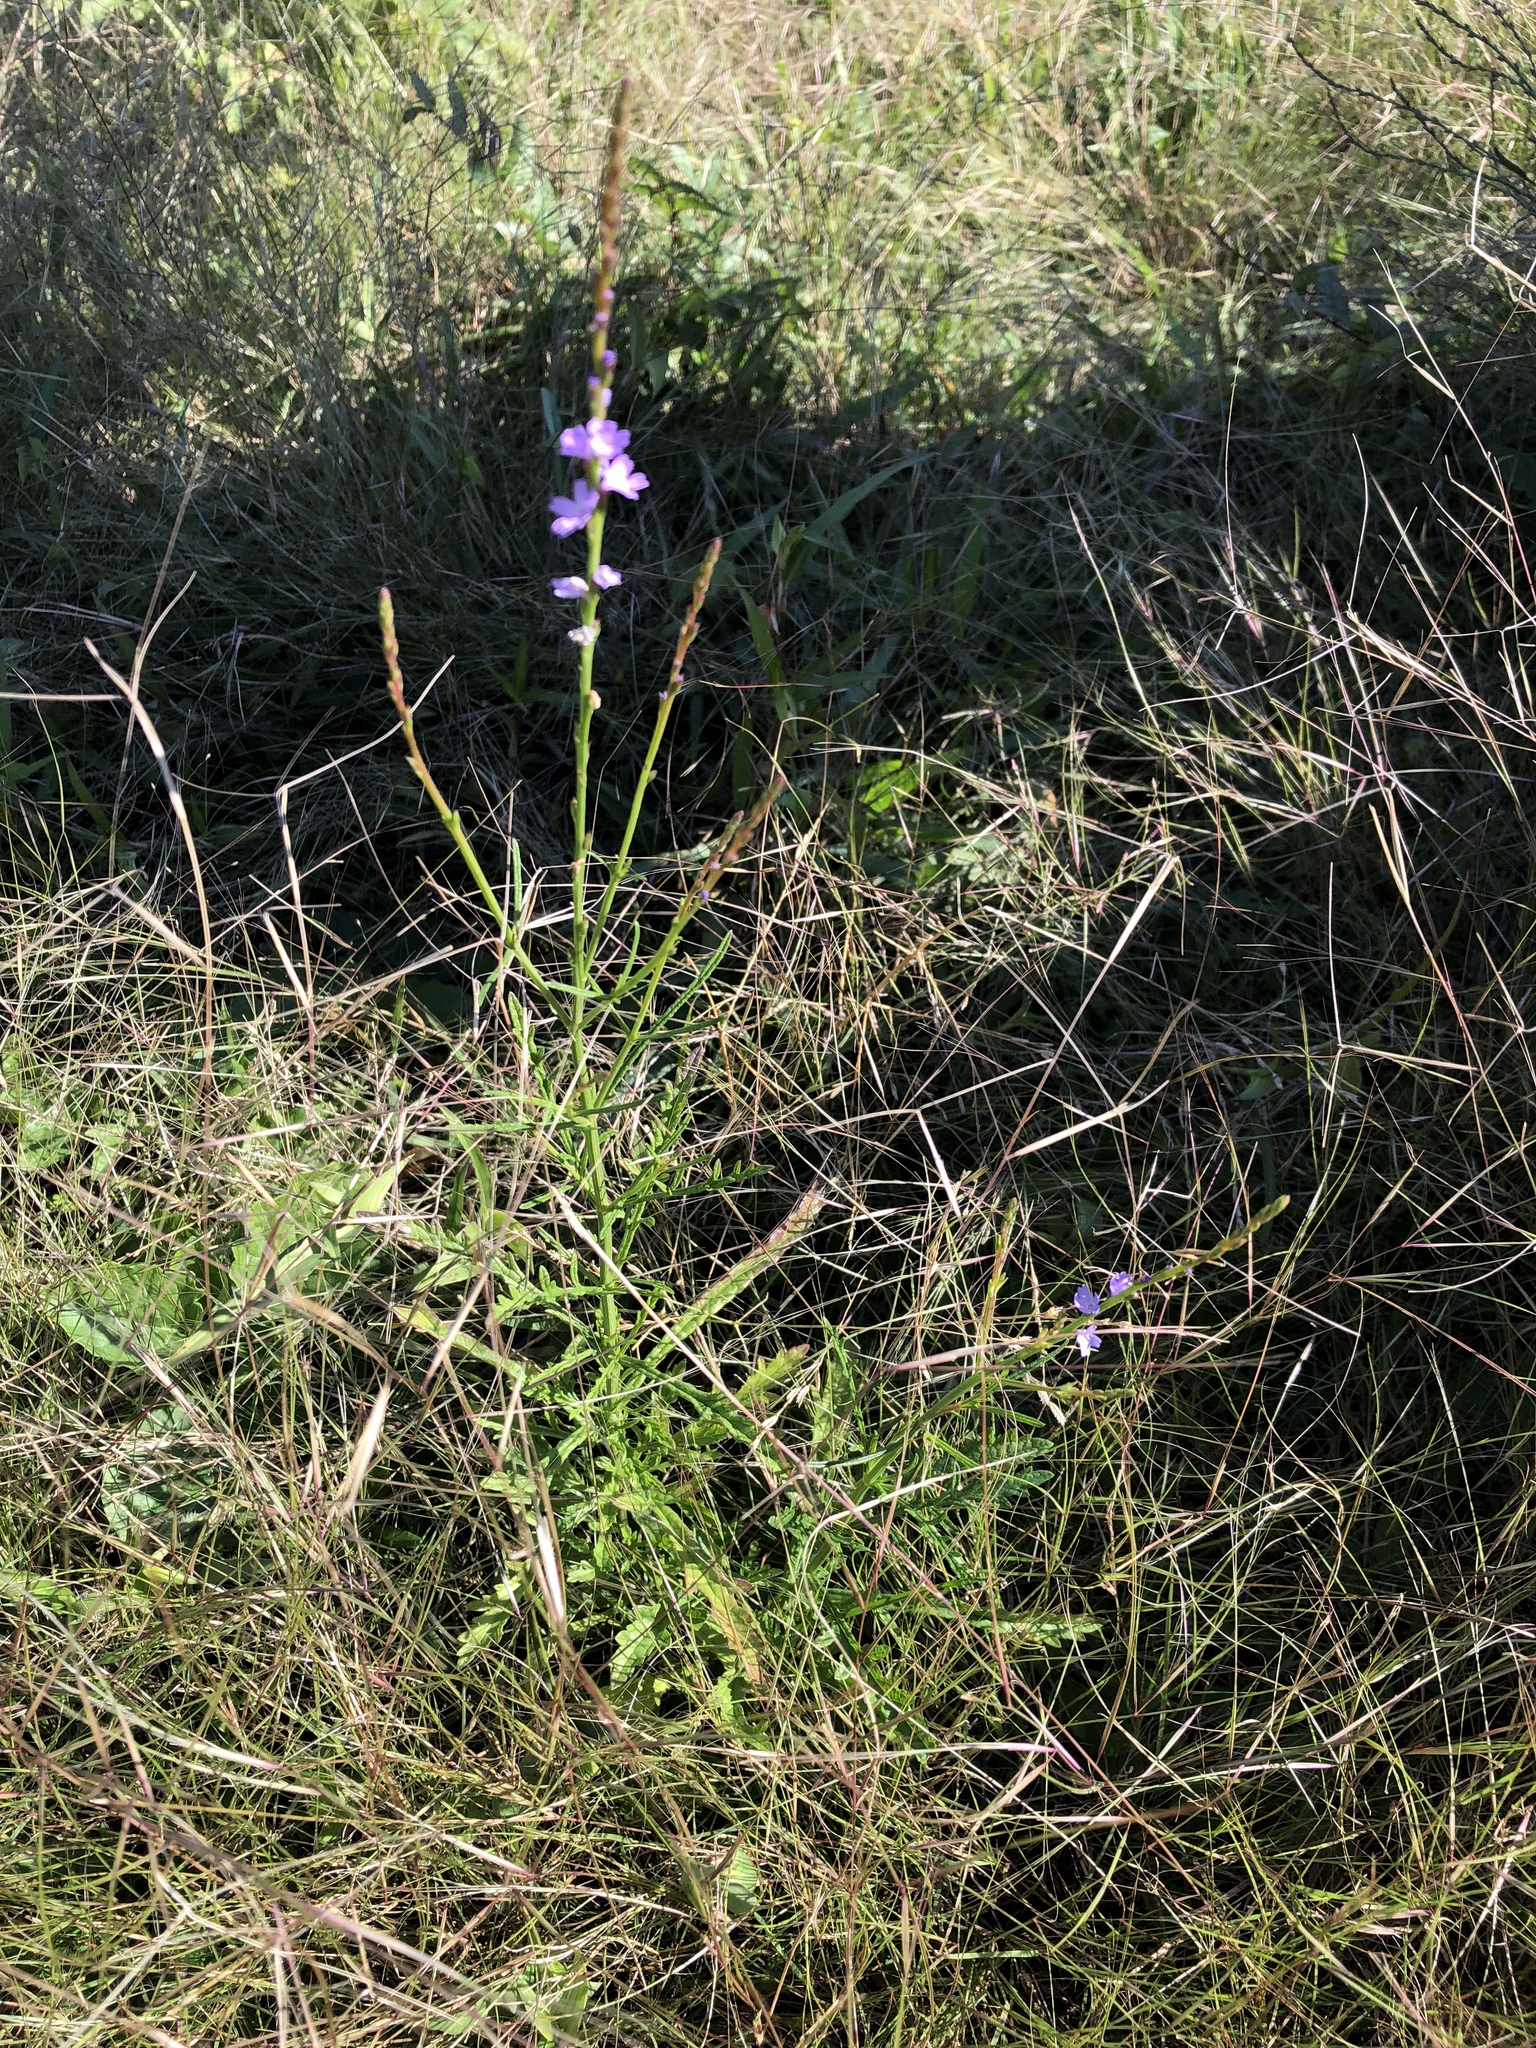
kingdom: Plantae
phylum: Tracheophyta
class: Magnoliopsida
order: Lamiales
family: Verbenaceae
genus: Verbena
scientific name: Verbena halei
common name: Texas vervain
